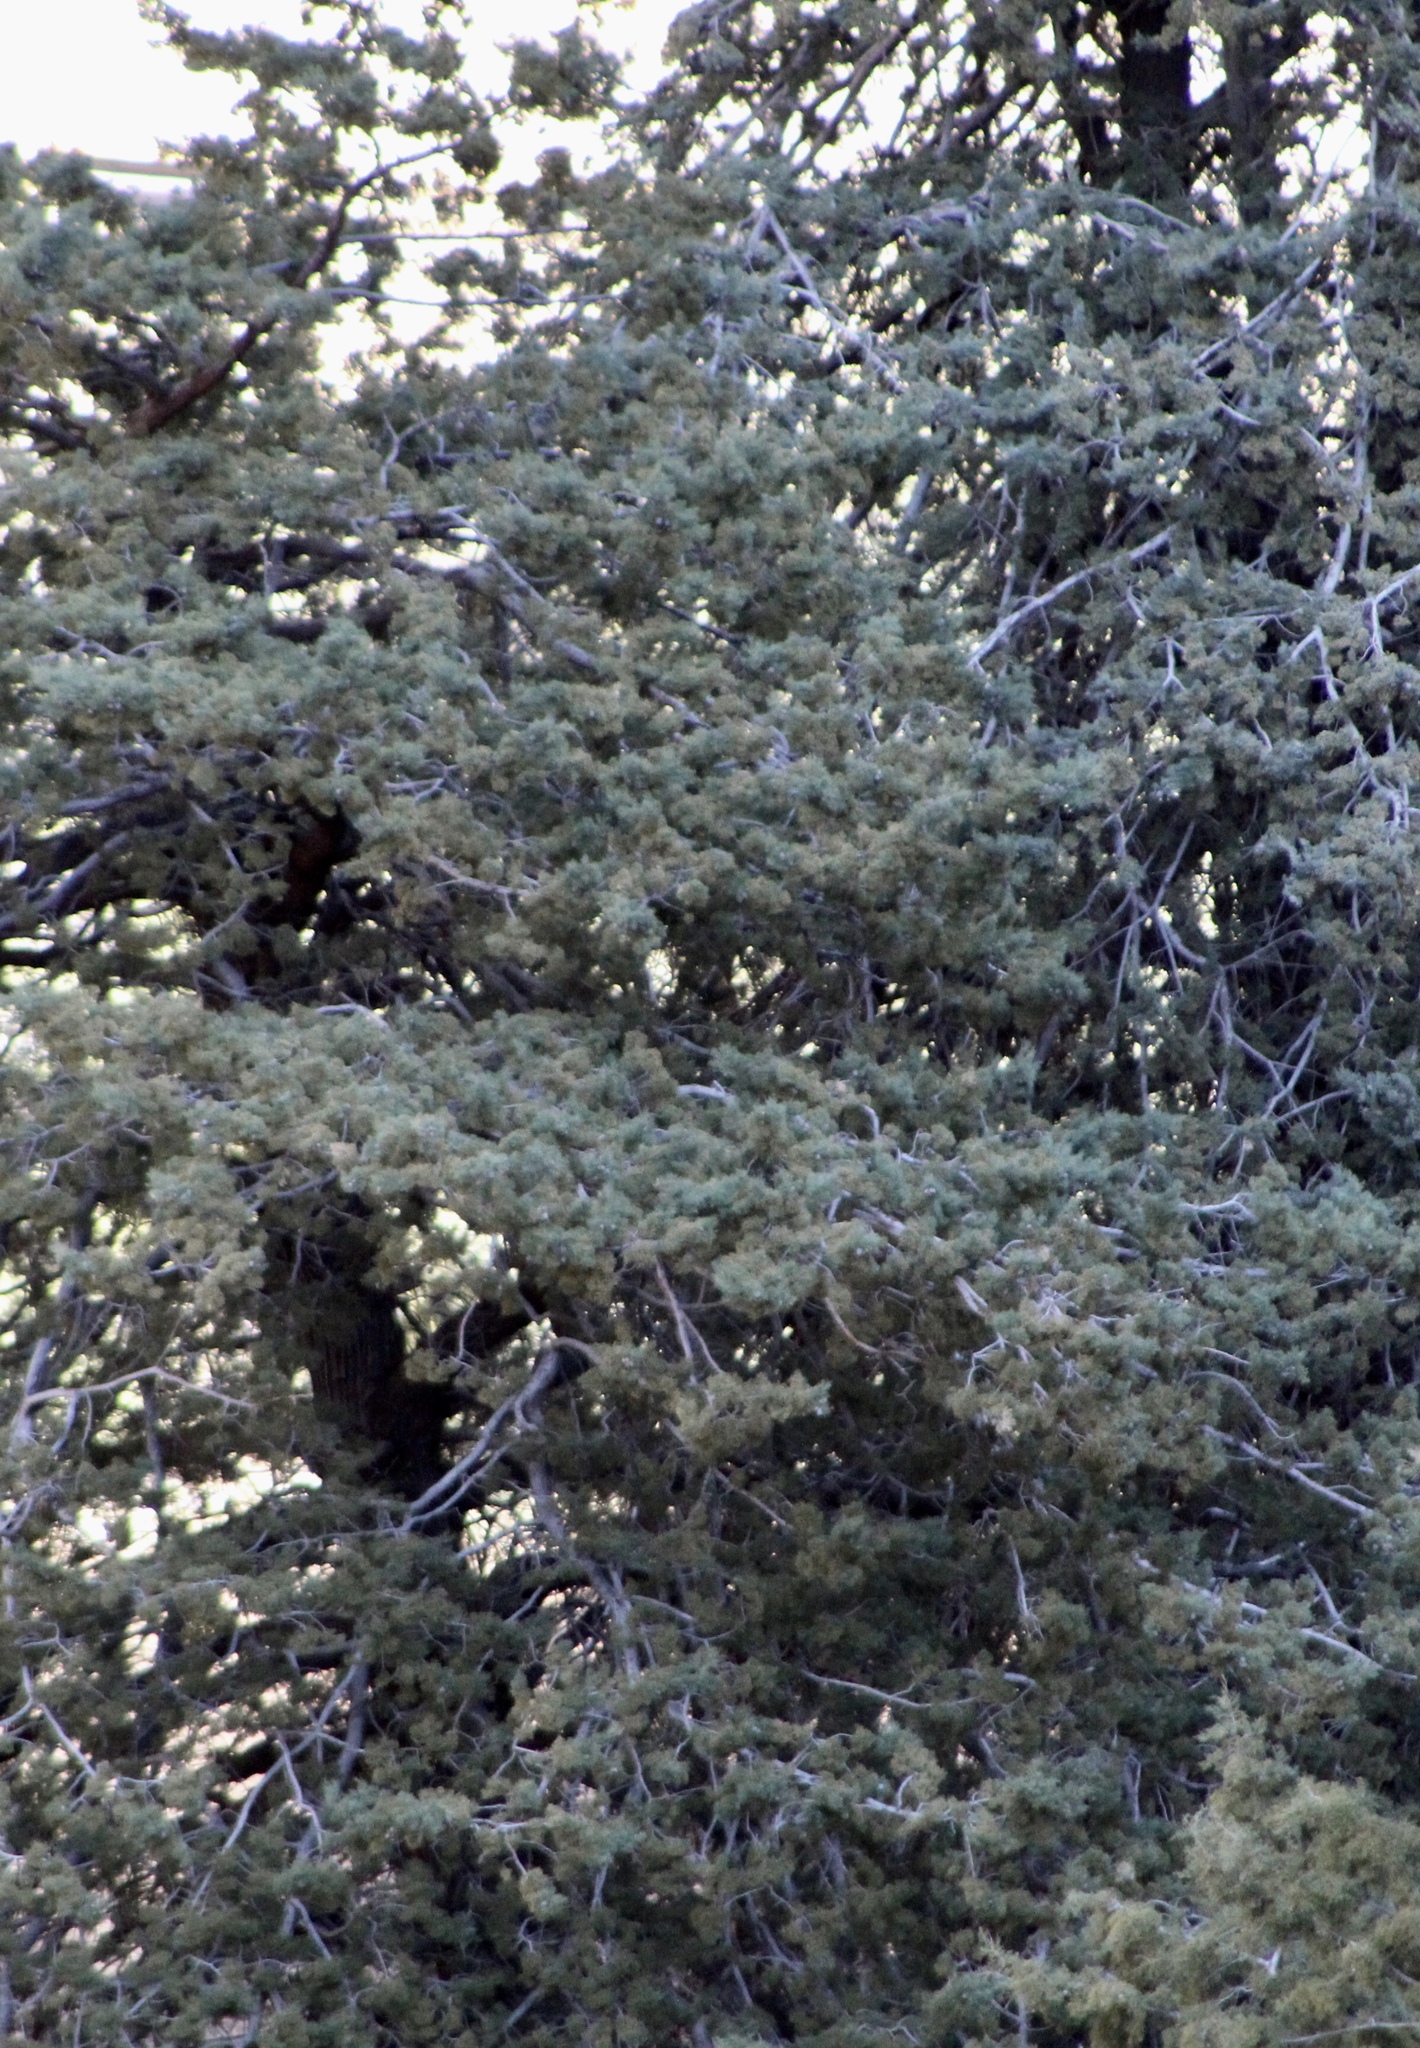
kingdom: Plantae
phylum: Tracheophyta
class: Pinopsida
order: Pinales
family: Cupressaceae
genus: Cupressus
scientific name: Cupressus arizonica
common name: Arizona cypress
